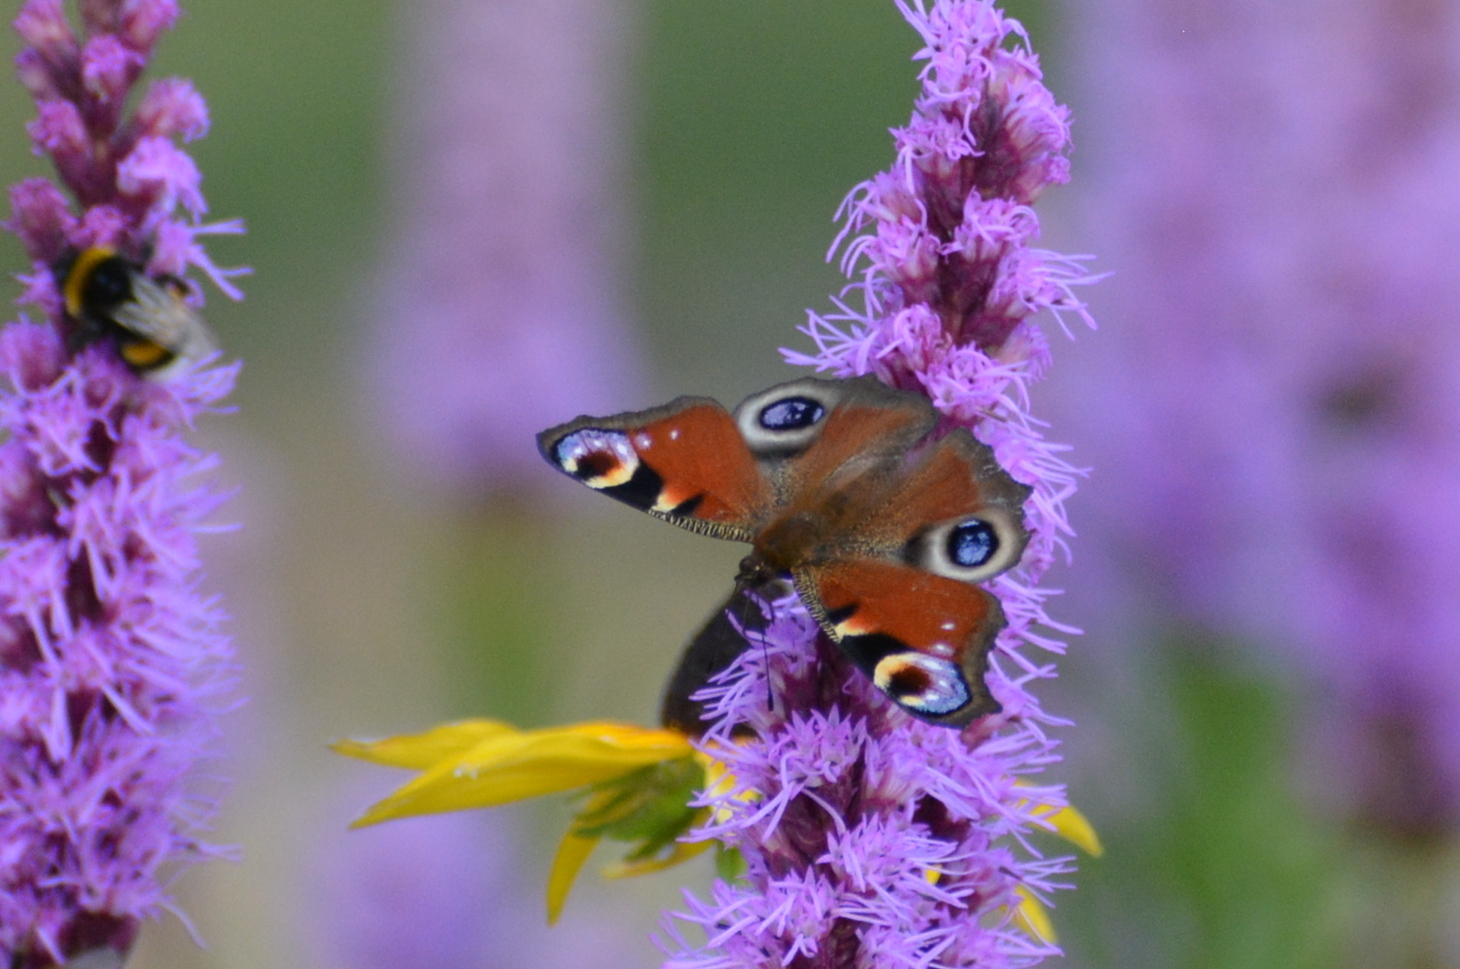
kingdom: Animalia
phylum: Arthropoda
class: Insecta
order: Lepidoptera
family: Nymphalidae
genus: Aglais
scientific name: Aglais io
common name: Peacock
